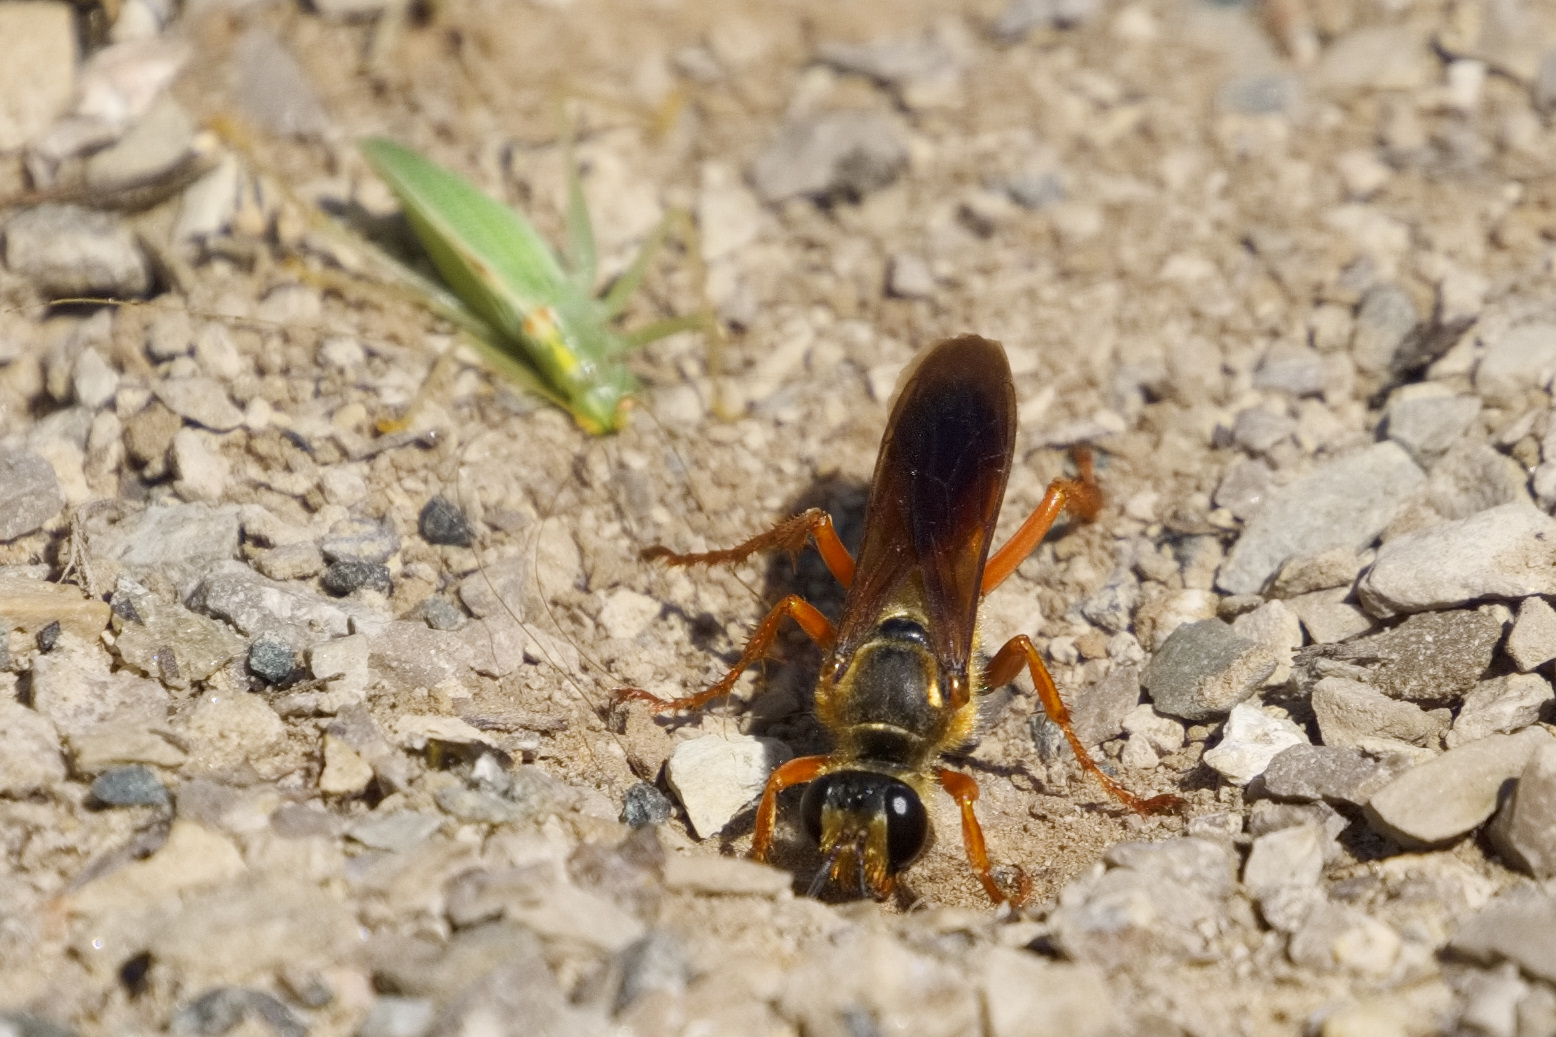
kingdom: Animalia
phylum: Arthropoda
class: Insecta
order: Hymenoptera
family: Sphecidae
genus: Sphex
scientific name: Sphex ichneumoneus
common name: Great golden digger wasp
